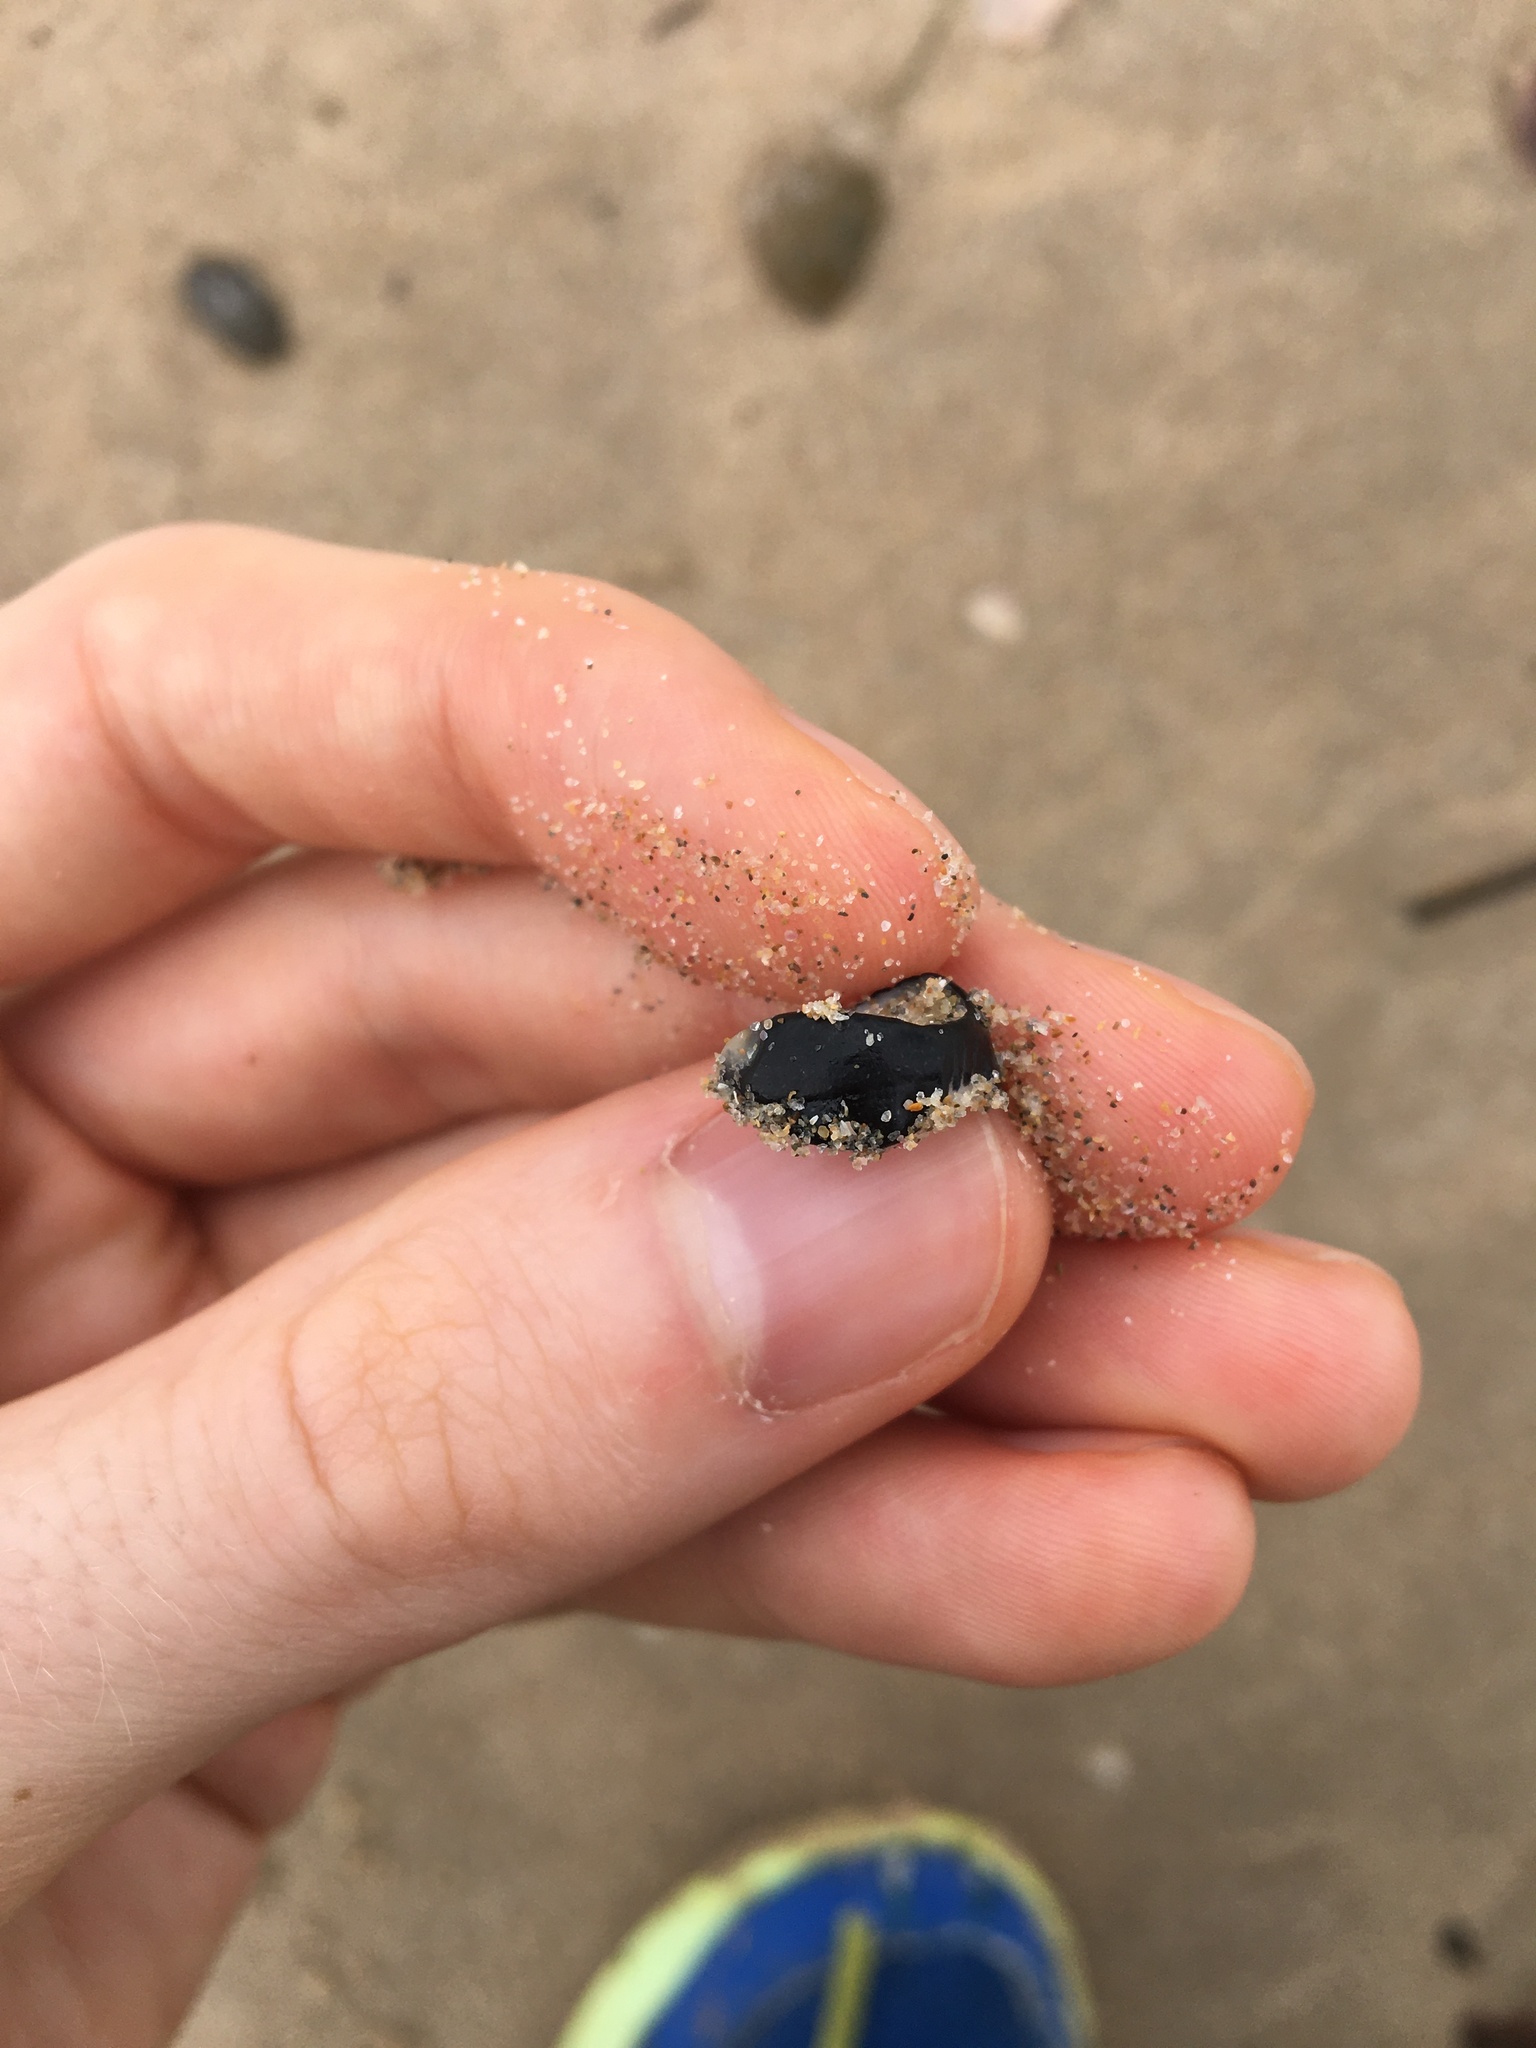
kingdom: Animalia
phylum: Mollusca
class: Gastropoda
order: Cycloneritida
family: Neritidae
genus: Nerita
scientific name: Nerita melanotragus
